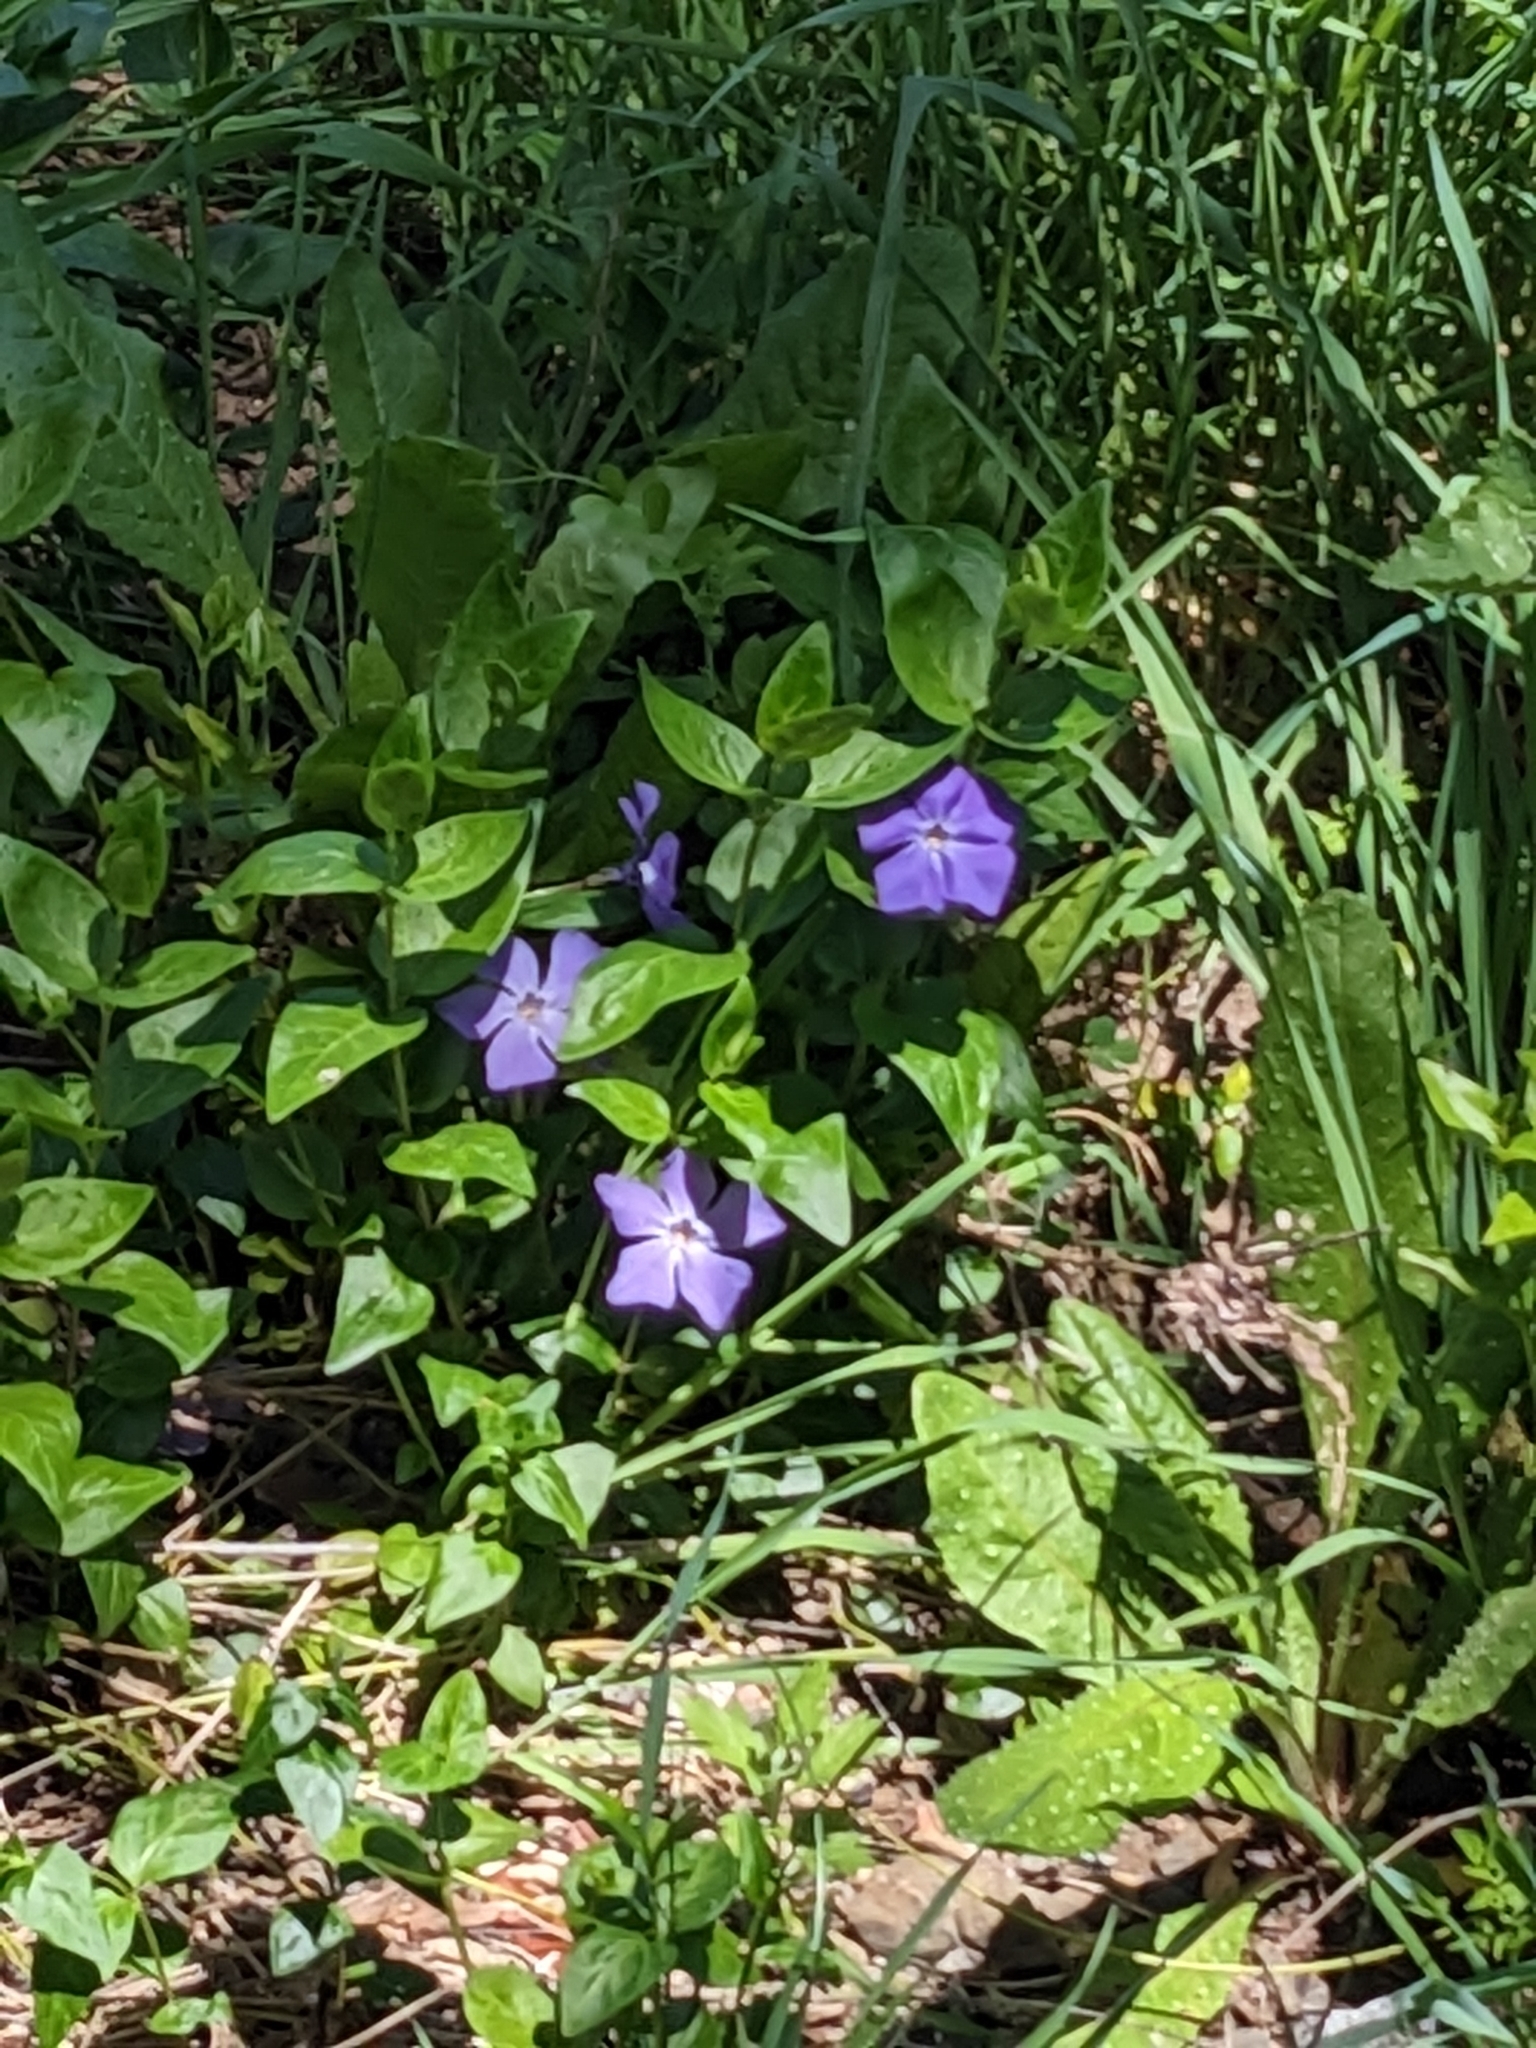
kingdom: Plantae
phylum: Tracheophyta
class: Magnoliopsida
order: Gentianales
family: Apocynaceae
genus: Vinca
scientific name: Vinca major
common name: Greater periwinkle
